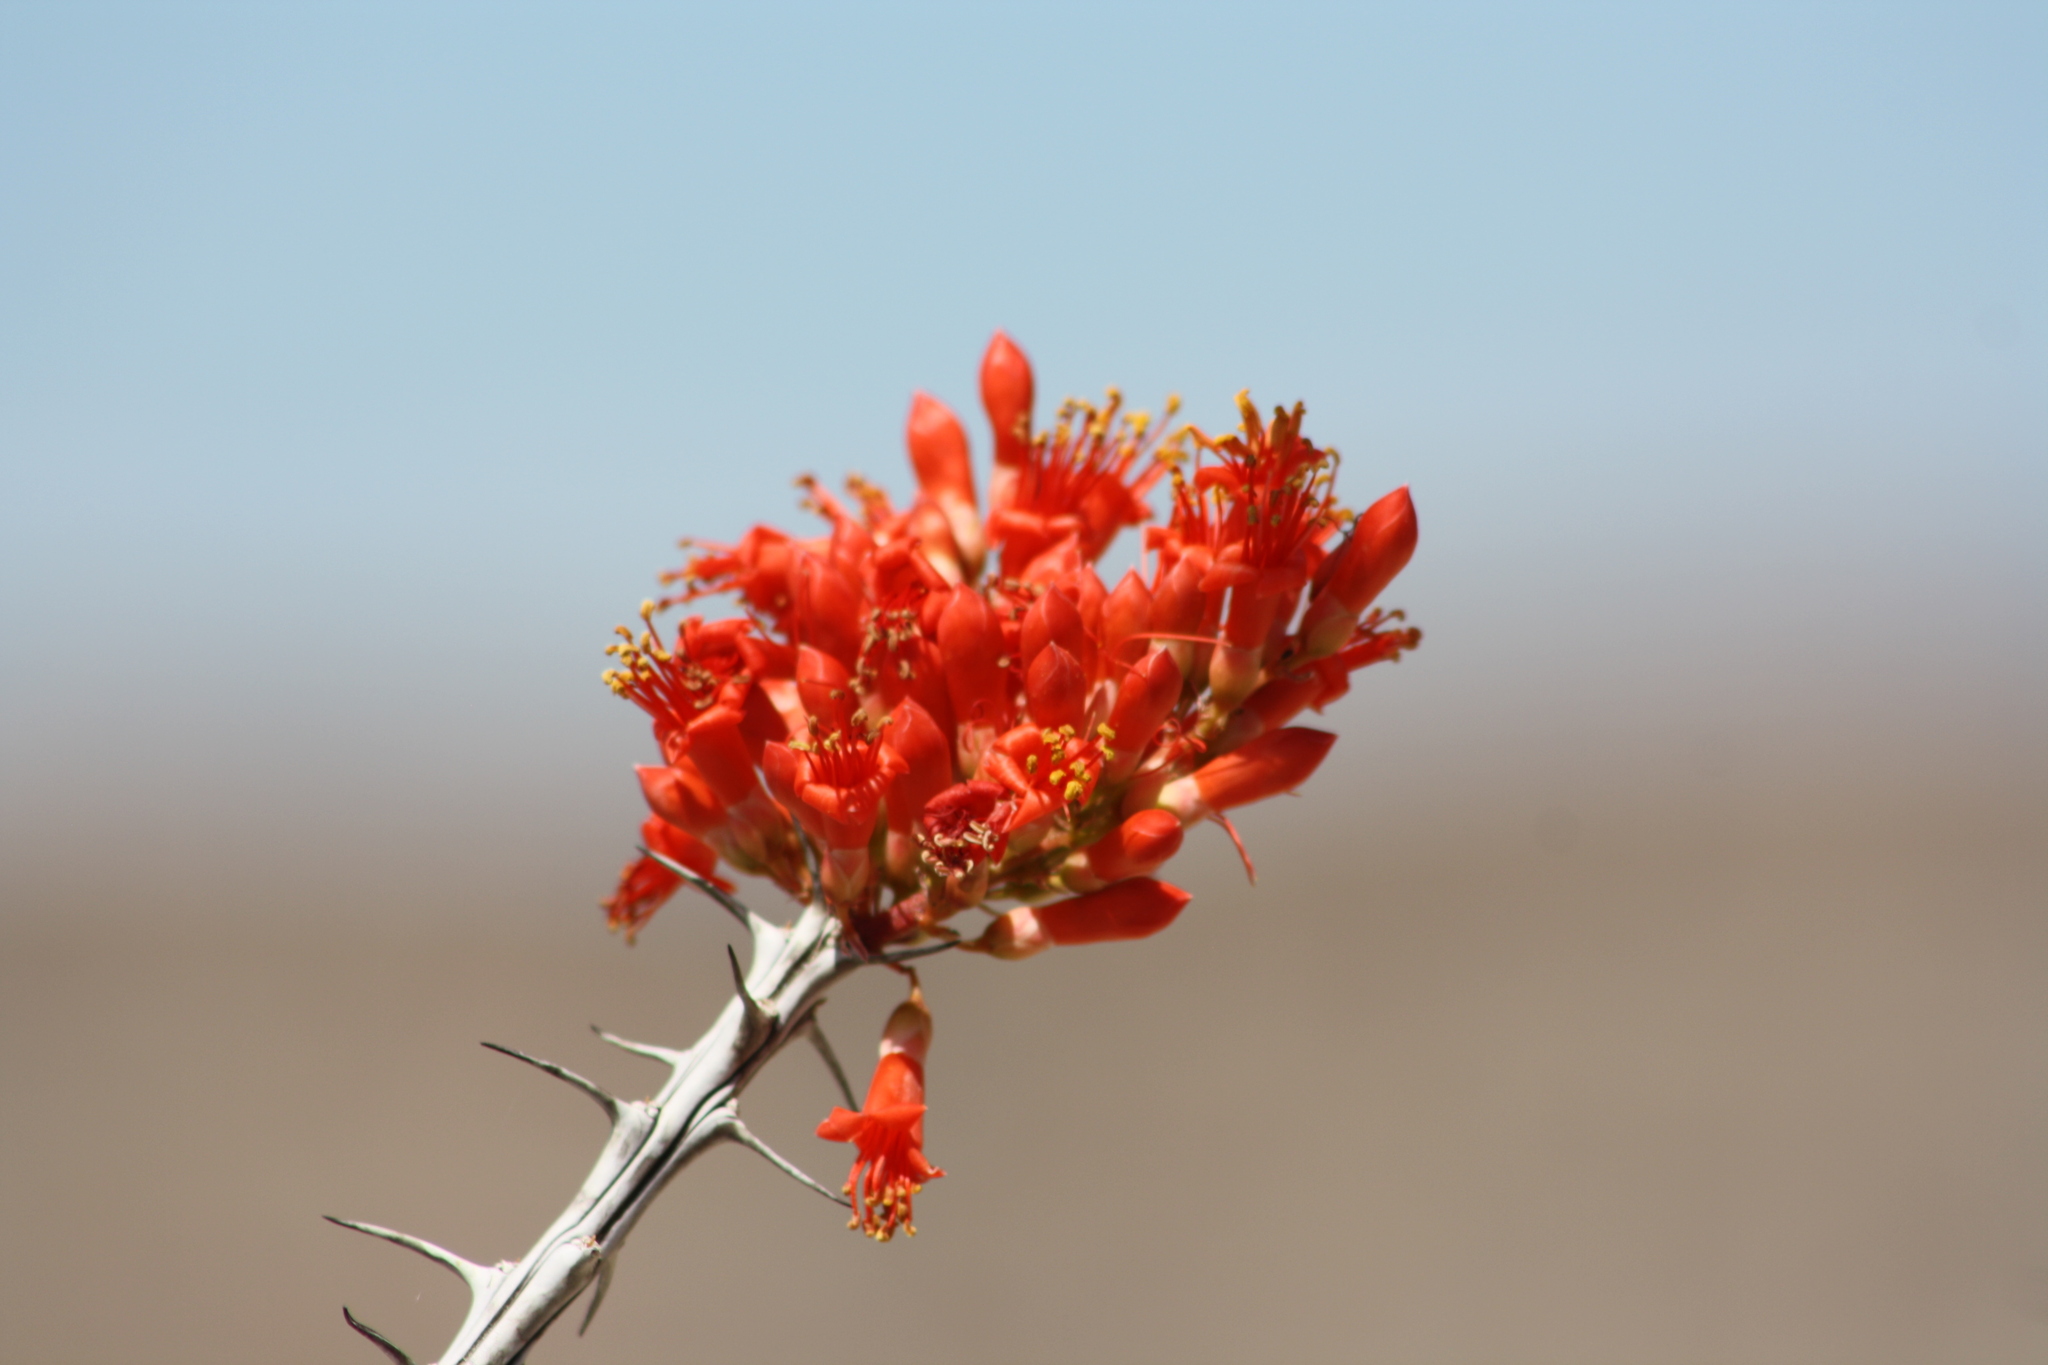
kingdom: Plantae
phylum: Tracheophyta
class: Magnoliopsida
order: Ericales
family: Fouquieriaceae
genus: Fouquieria
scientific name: Fouquieria splendens
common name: Vine-cactus
